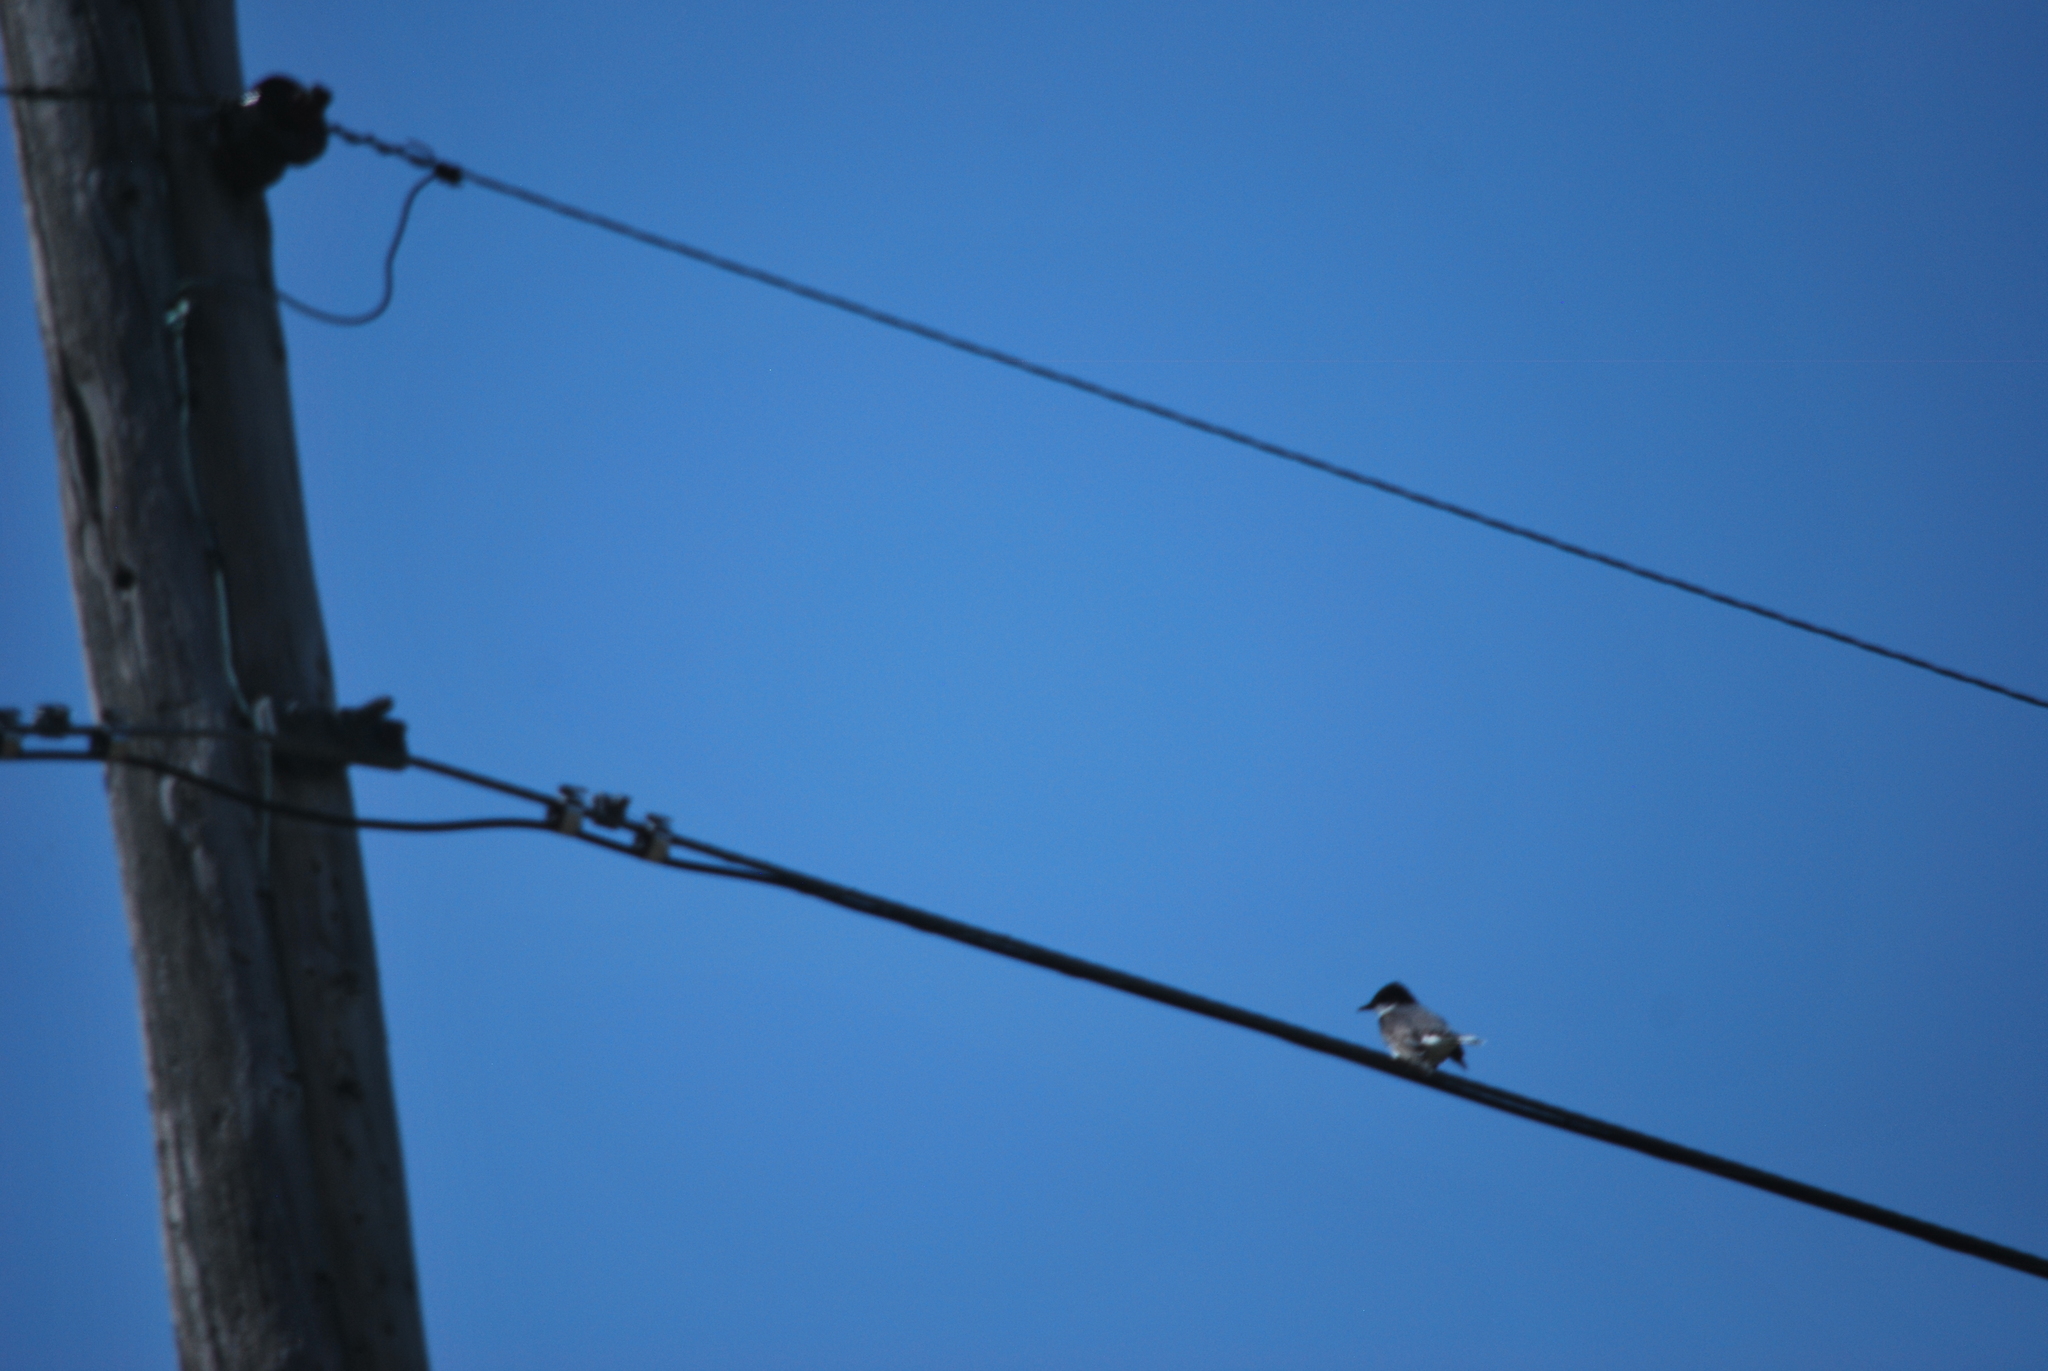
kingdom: Animalia
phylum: Chordata
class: Aves
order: Passeriformes
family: Tyrannidae
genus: Tyrannus
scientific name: Tyrannus tyrannus
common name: Eastern kingbird
